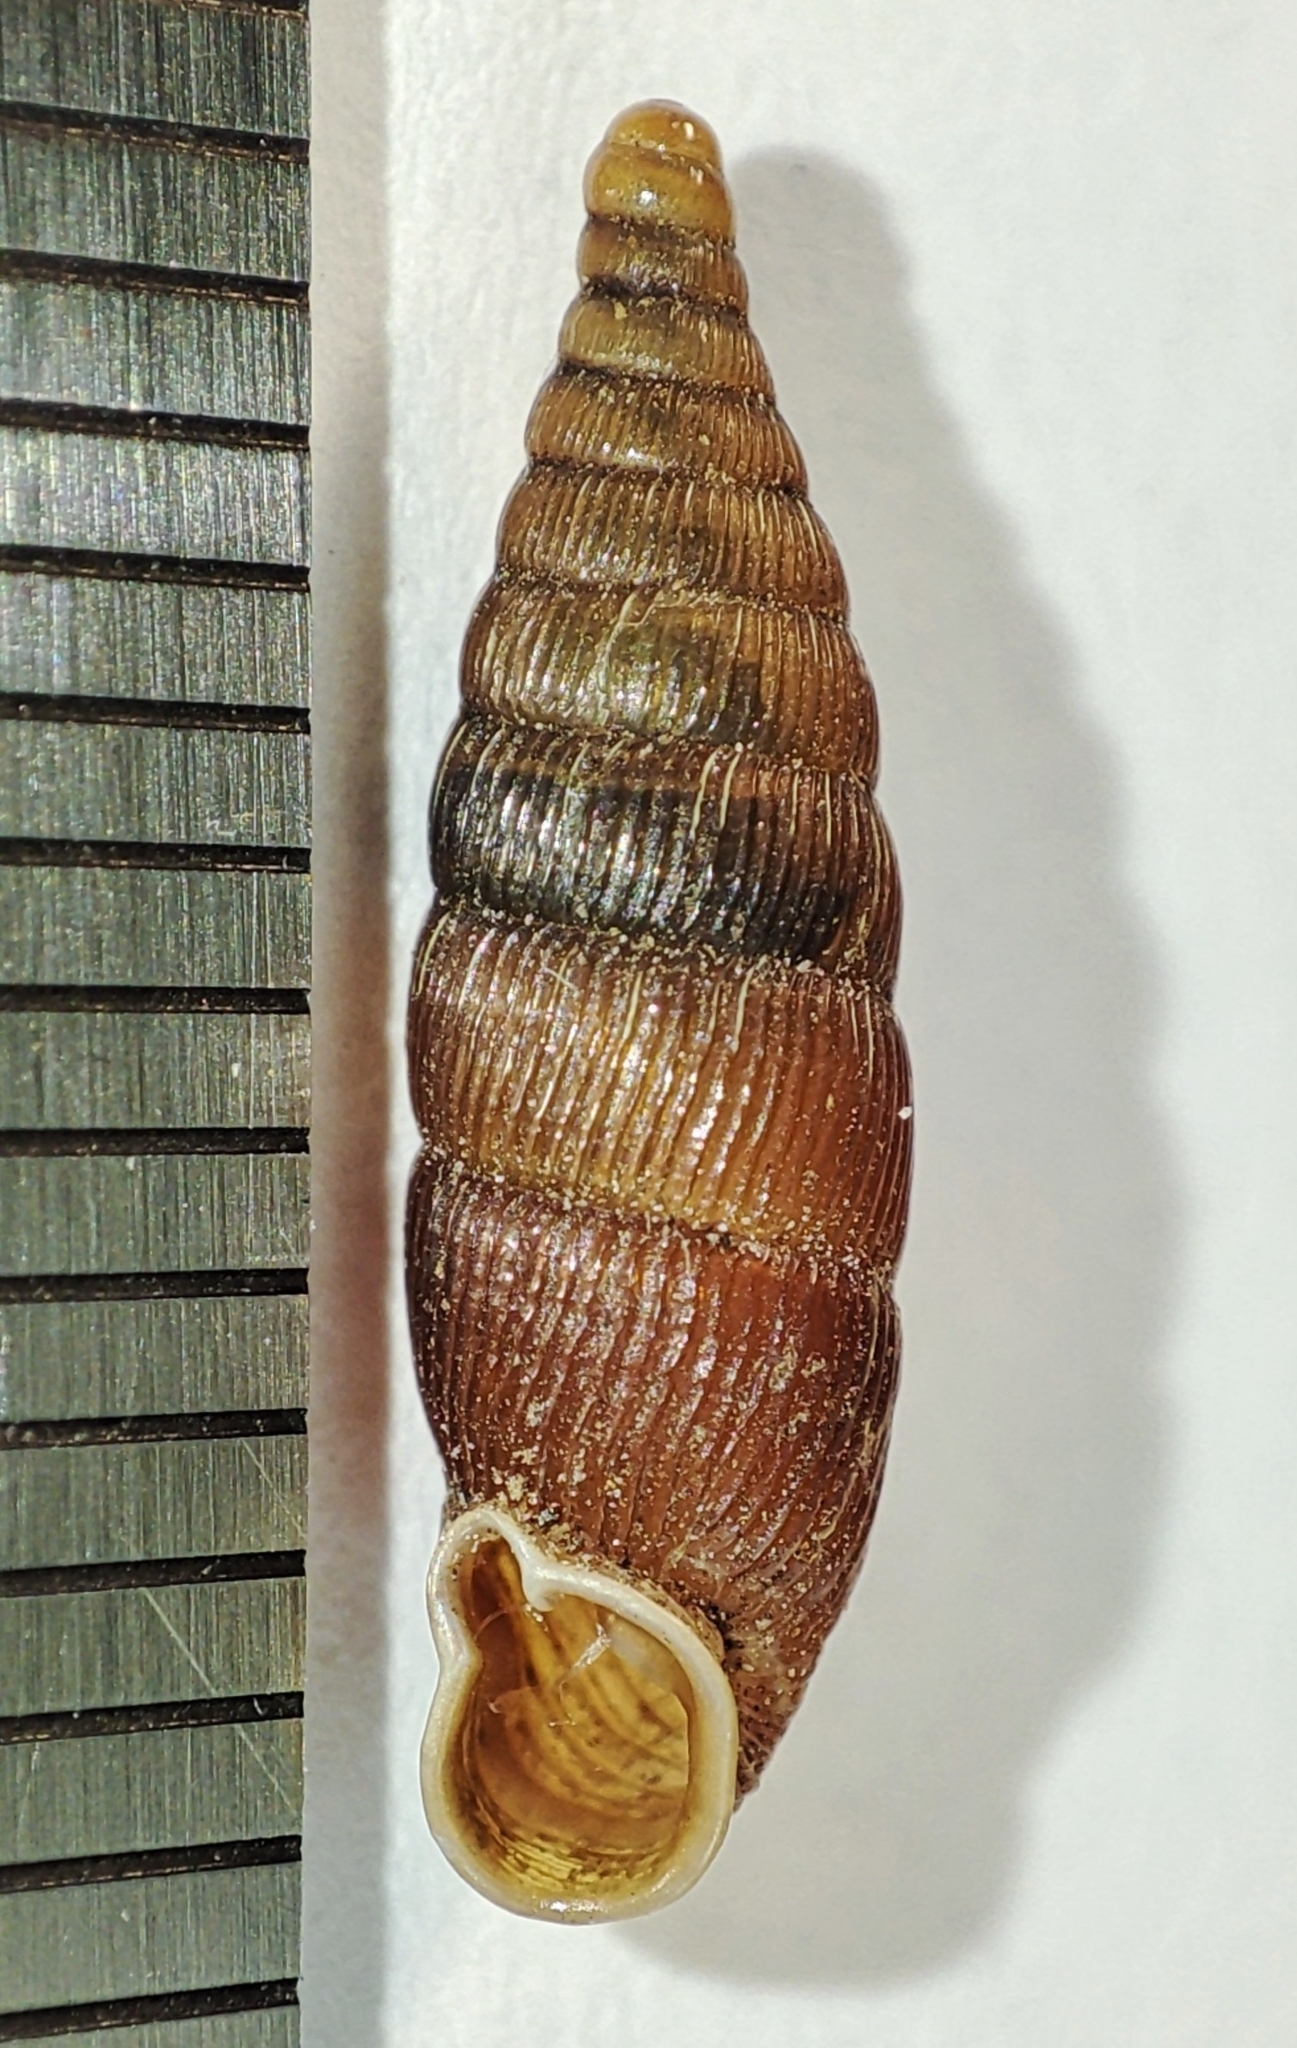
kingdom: Animalia
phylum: Mollusca
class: Gastropoda
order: Stylommatophora
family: Clausiliidae
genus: Macrogastra
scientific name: Macrogastra tumida
